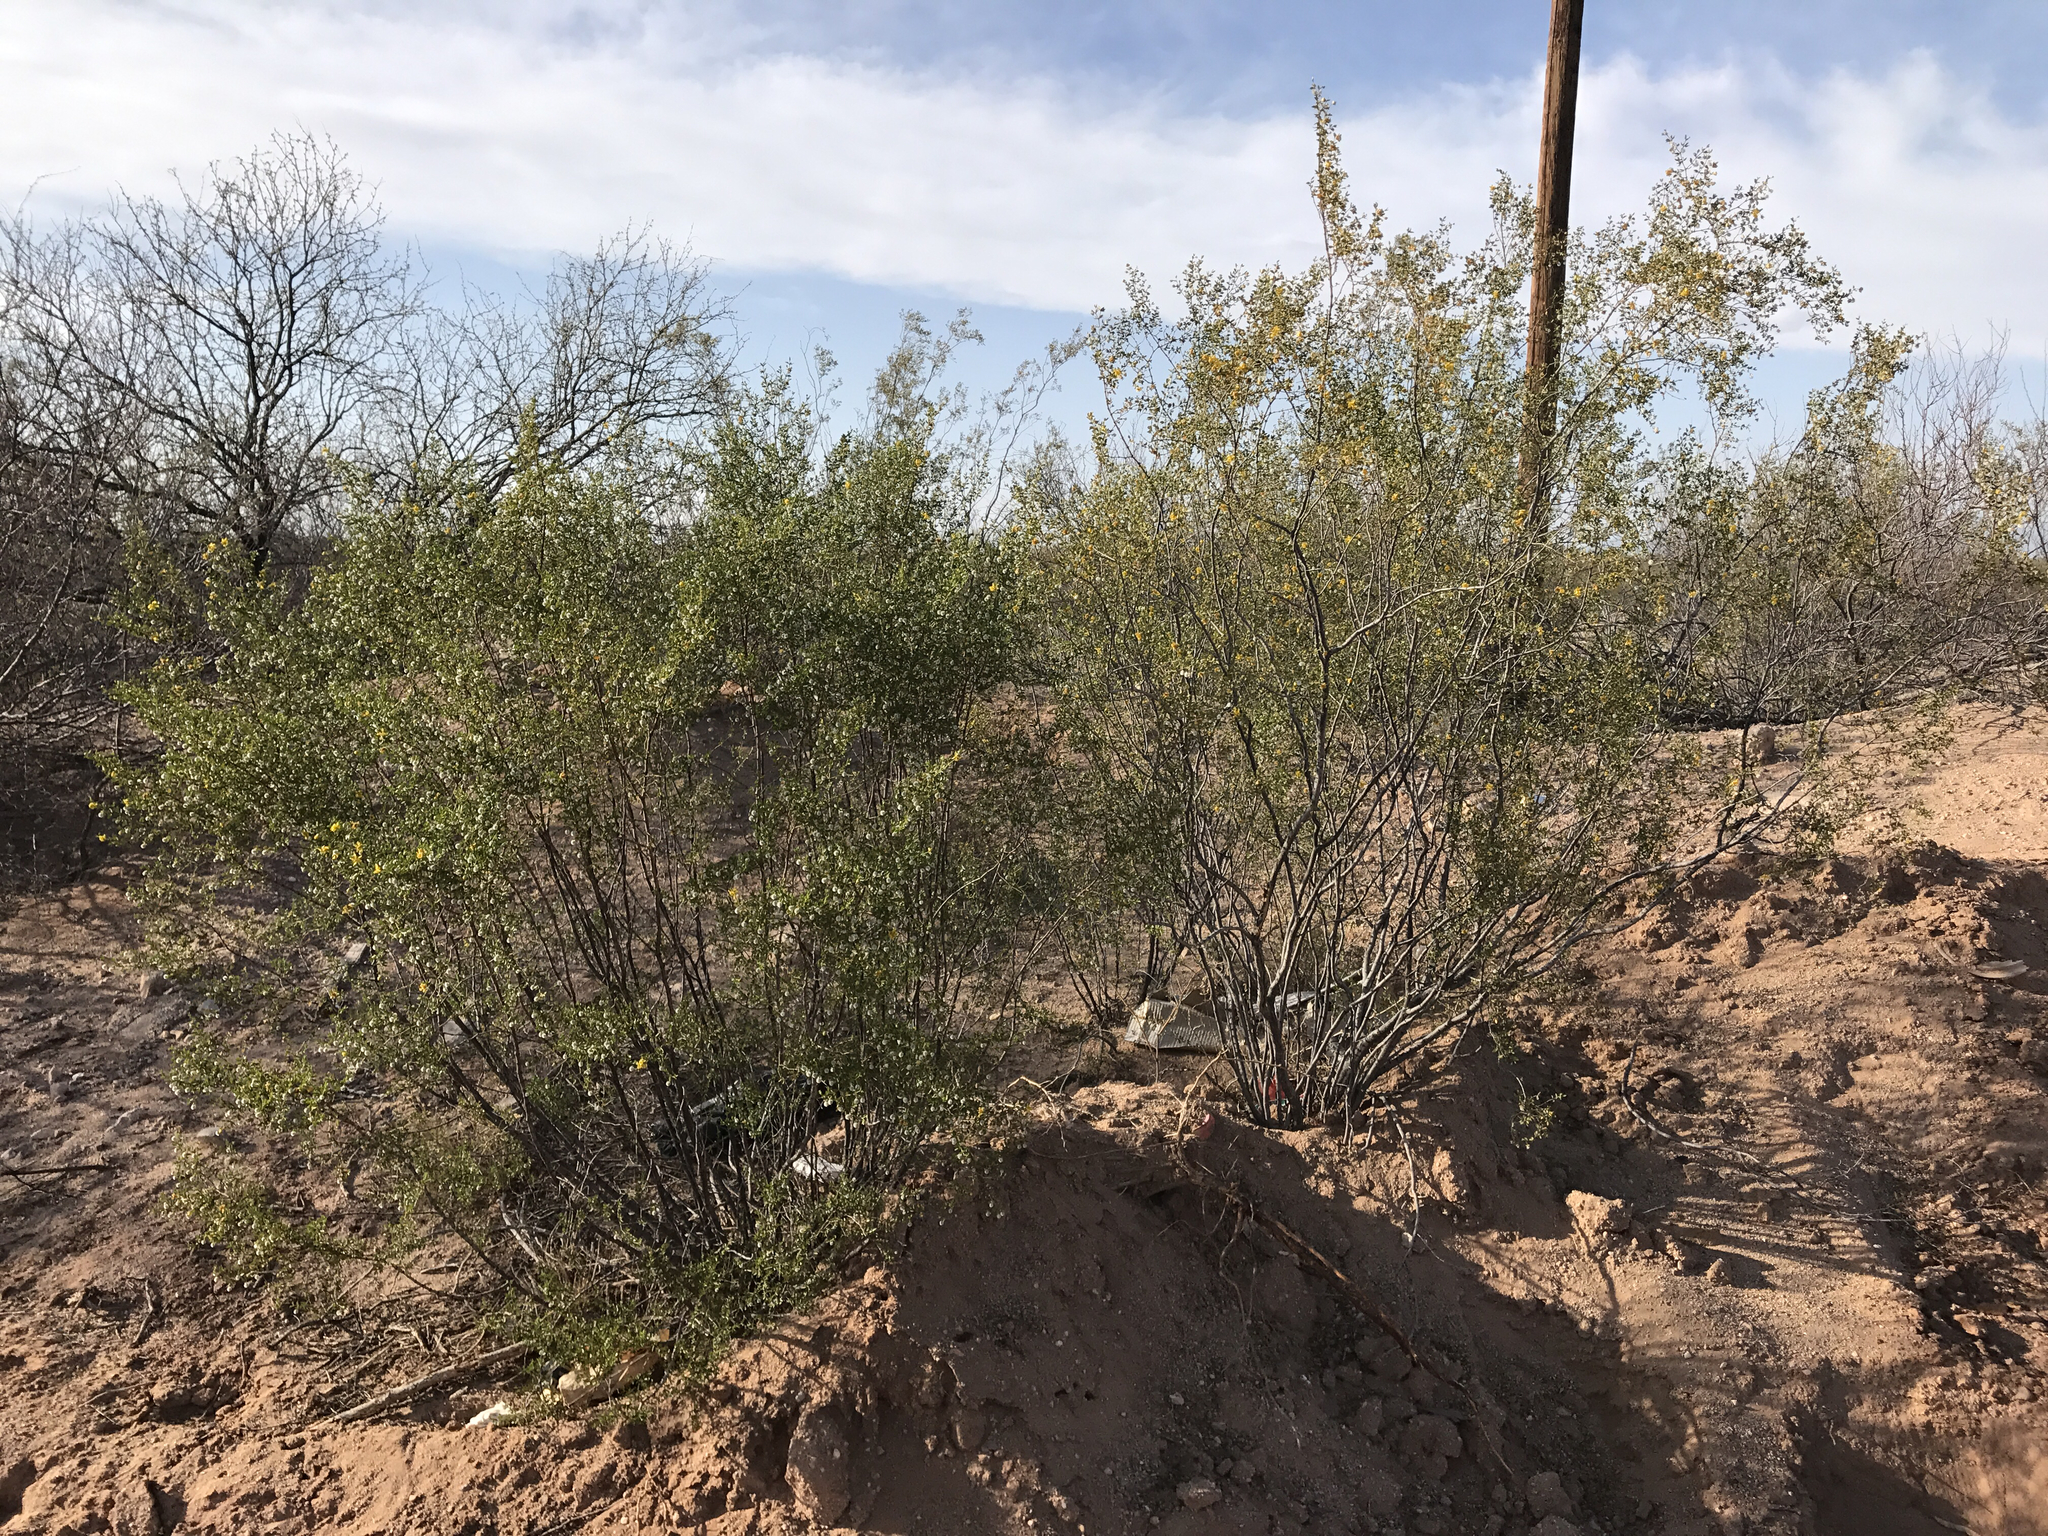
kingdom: Plantae
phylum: Tracheophyta
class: Magnoliopsida
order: Zygophyllales
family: Zygophyllaceae
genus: Larrea
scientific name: Larrea tridentata
